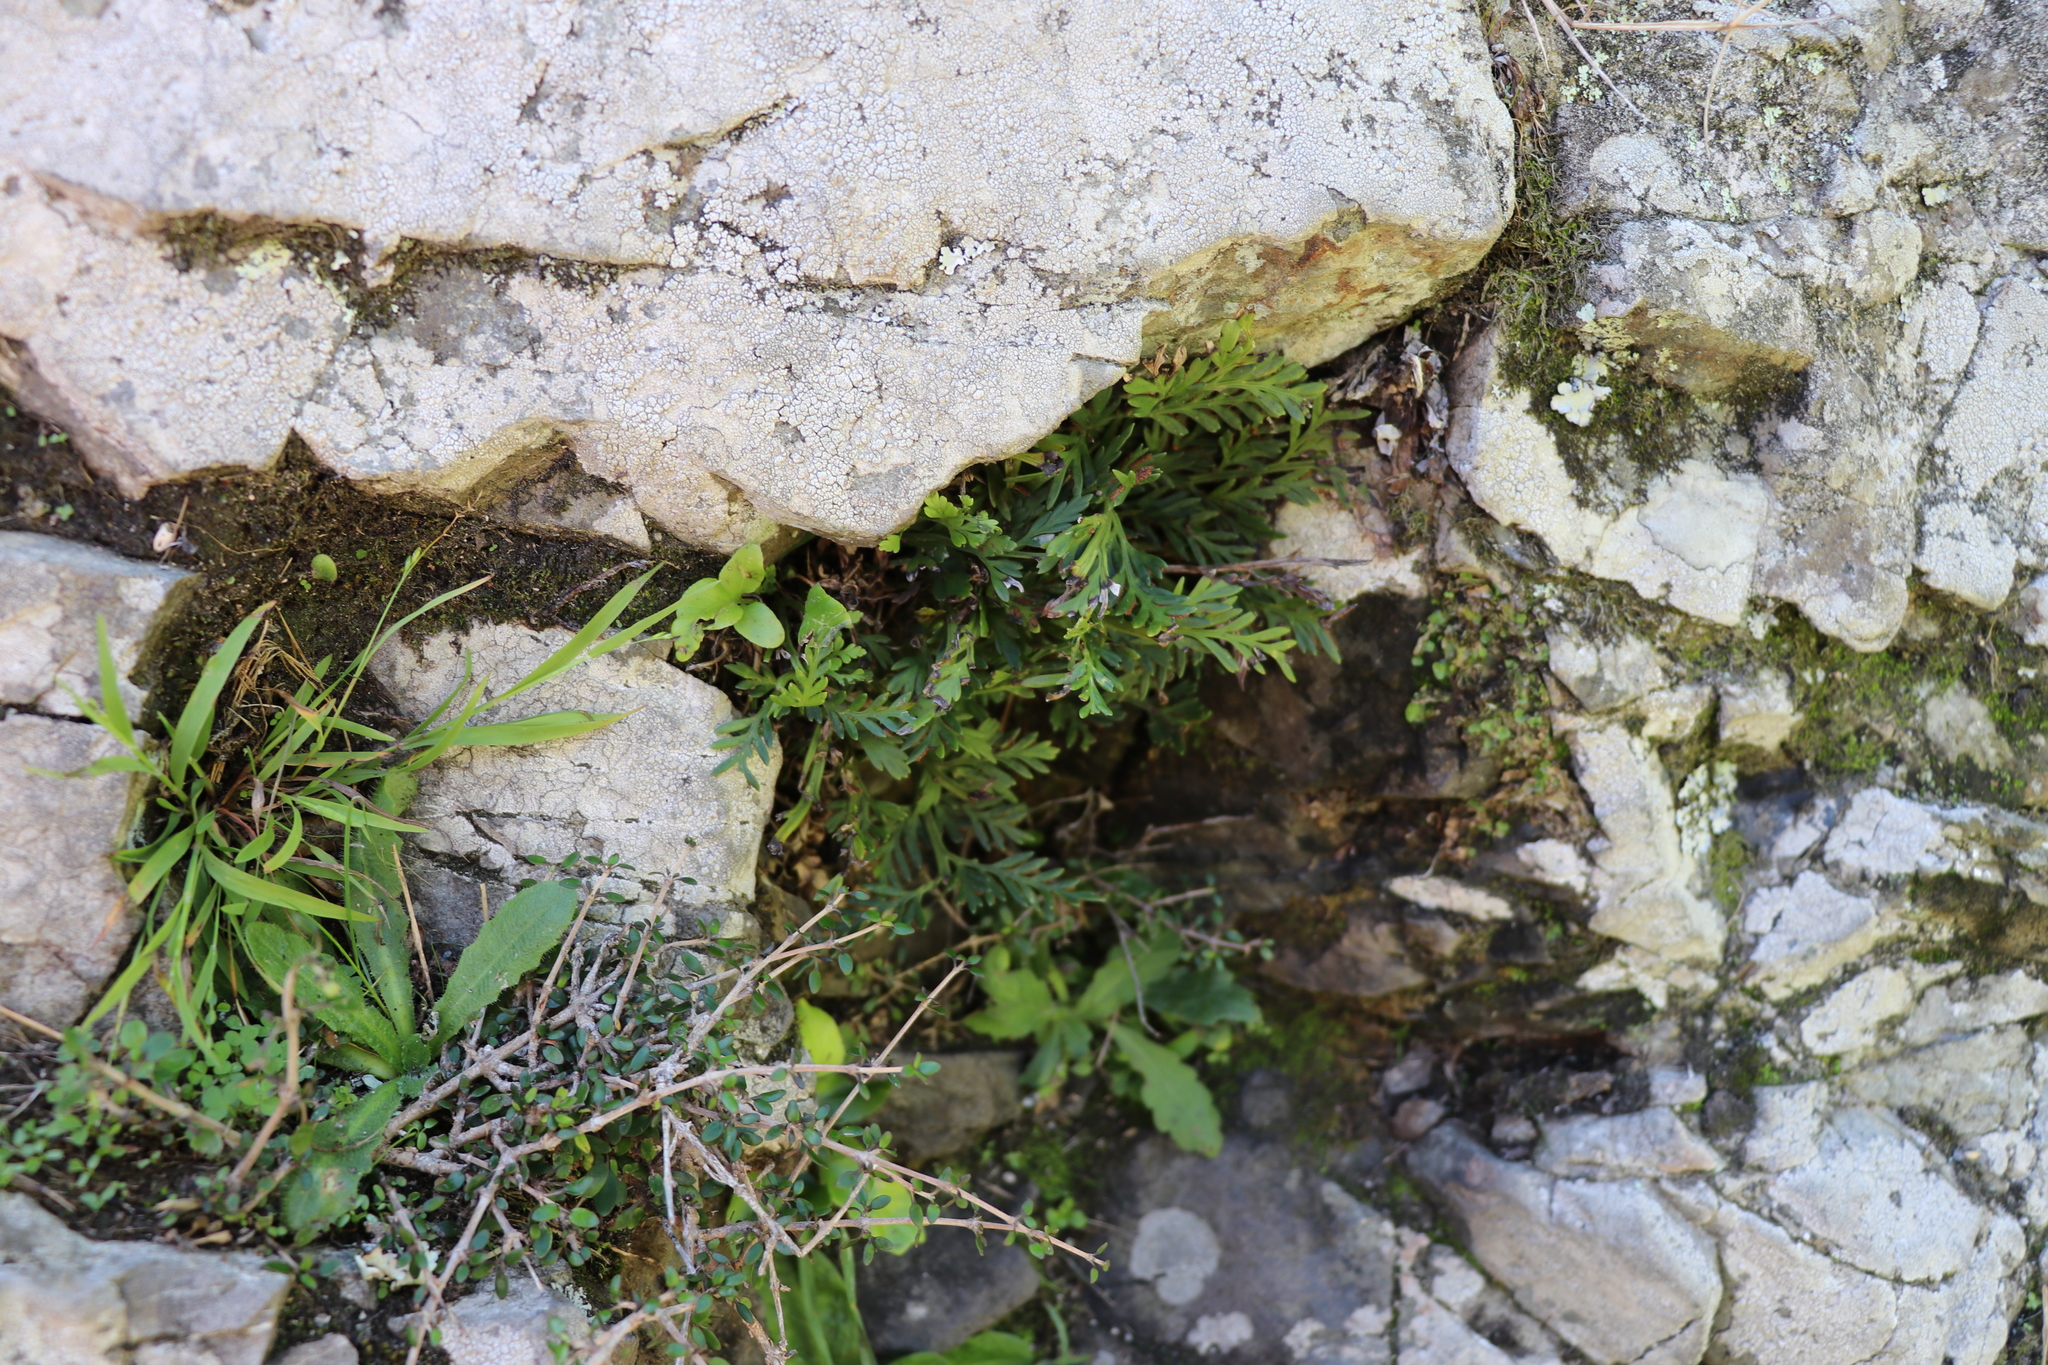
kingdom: Plantae
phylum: Tracheophyta
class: Polypodiopsida
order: Polypodiales
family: Aspleniaceae
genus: Asplenium
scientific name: Asplenium appendiculatum
